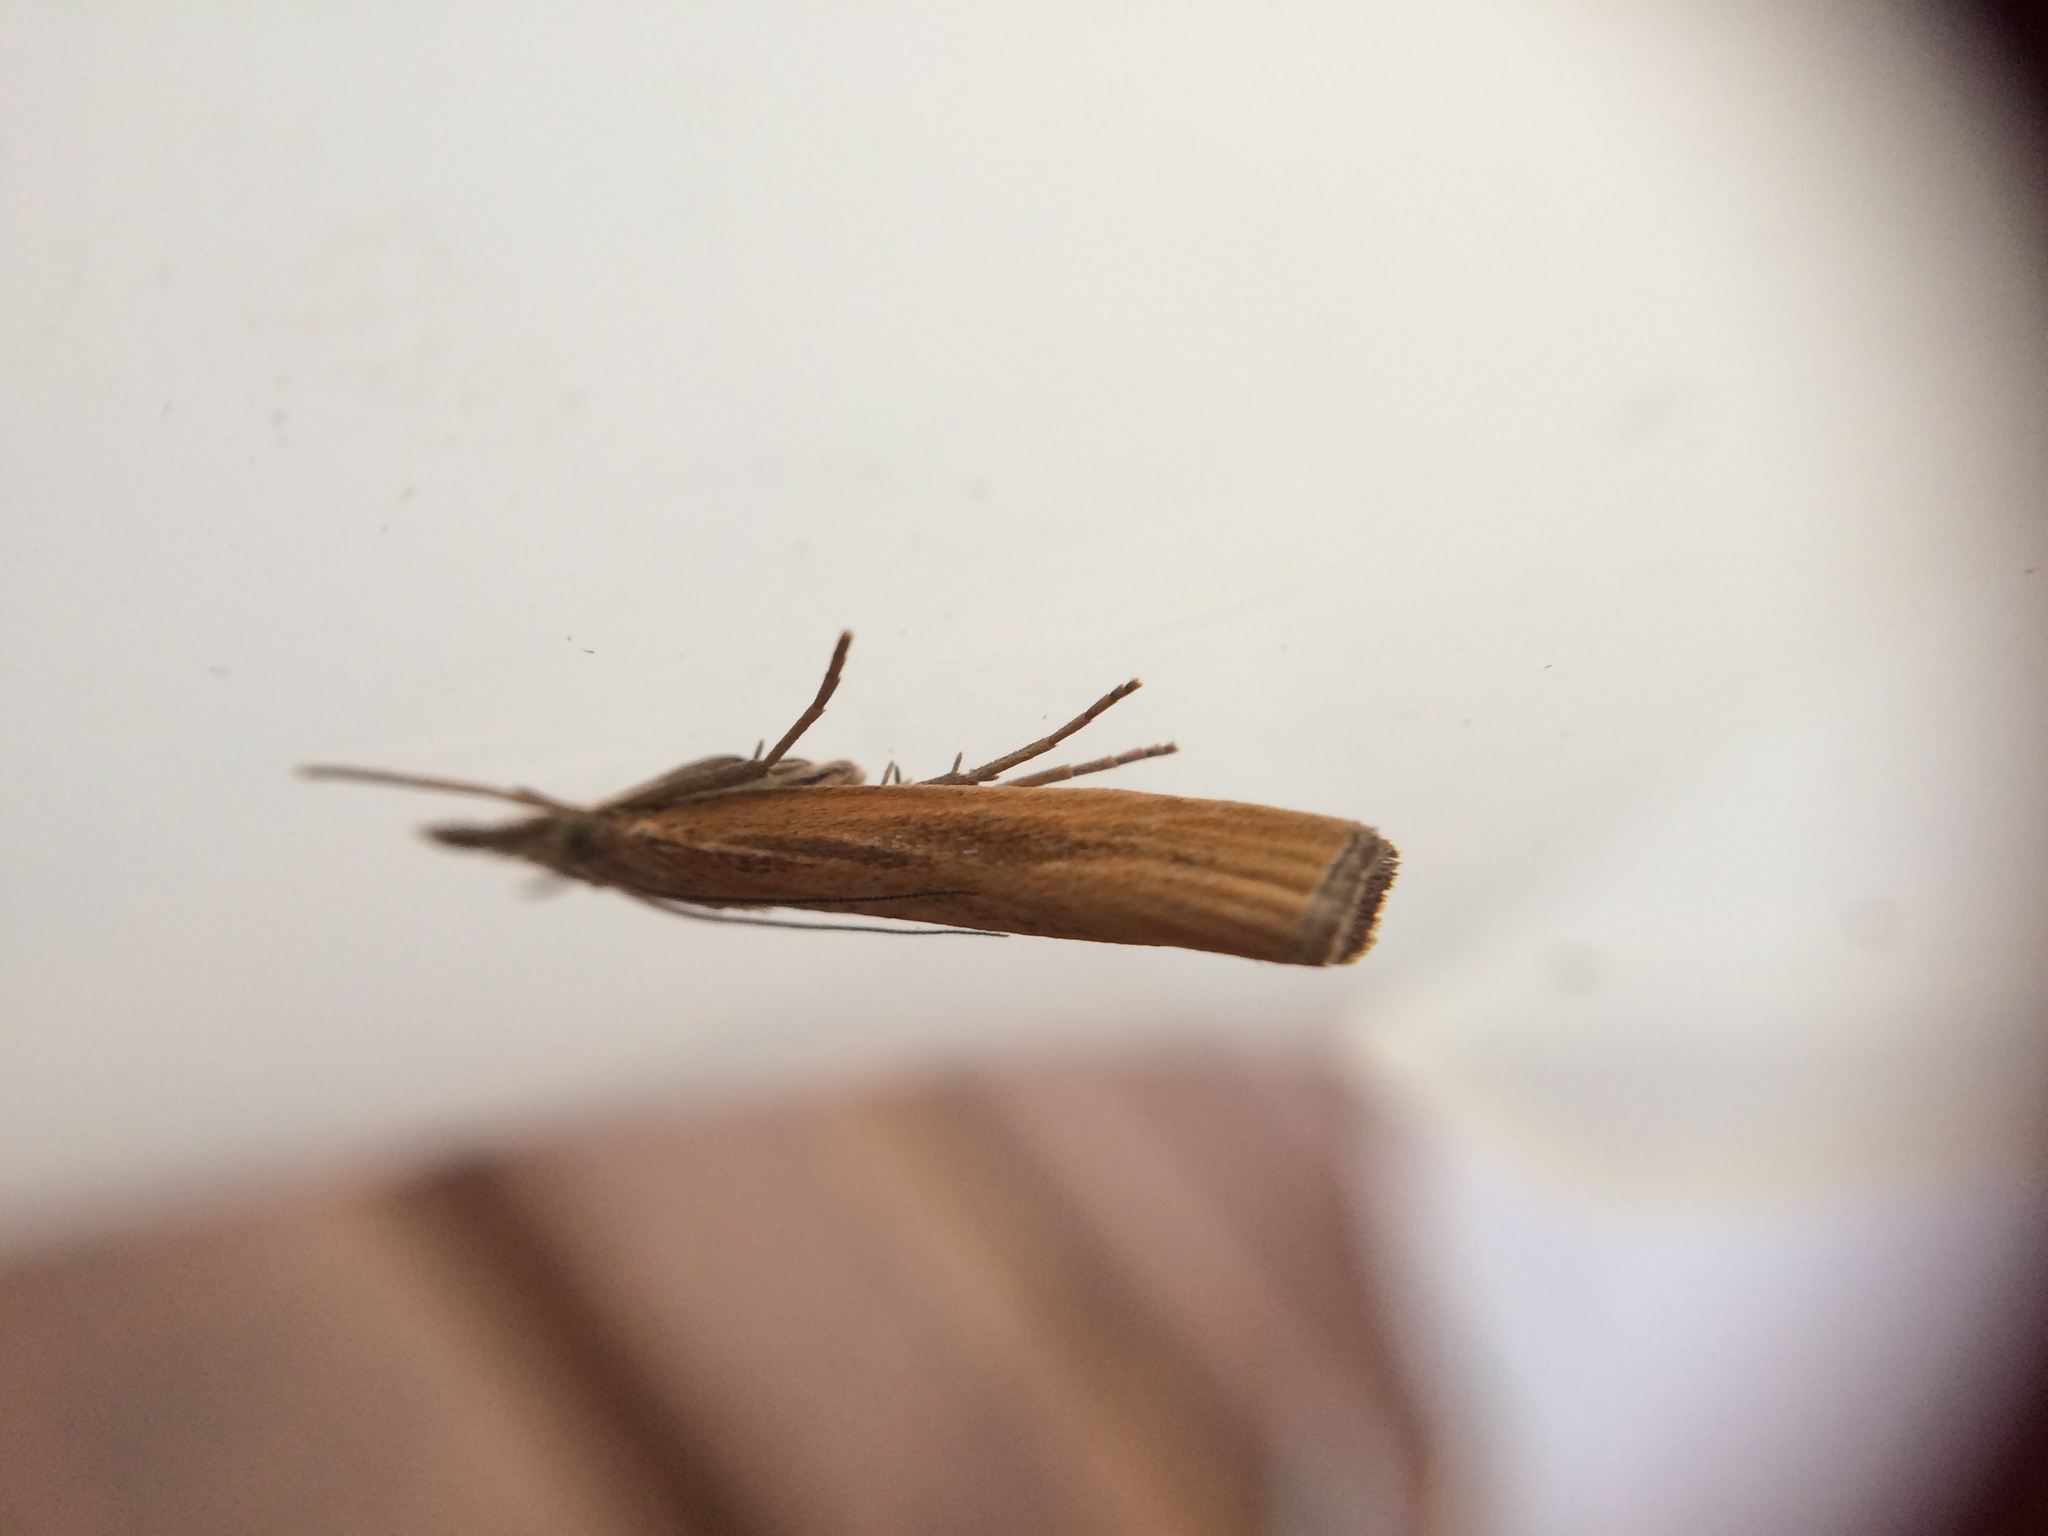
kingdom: Animalia
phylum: Arthropoda
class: Insecta
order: Lepidoptera
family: Crambidae
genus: Agriphila
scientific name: Agriphila tristellus
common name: Common grass-veneer
